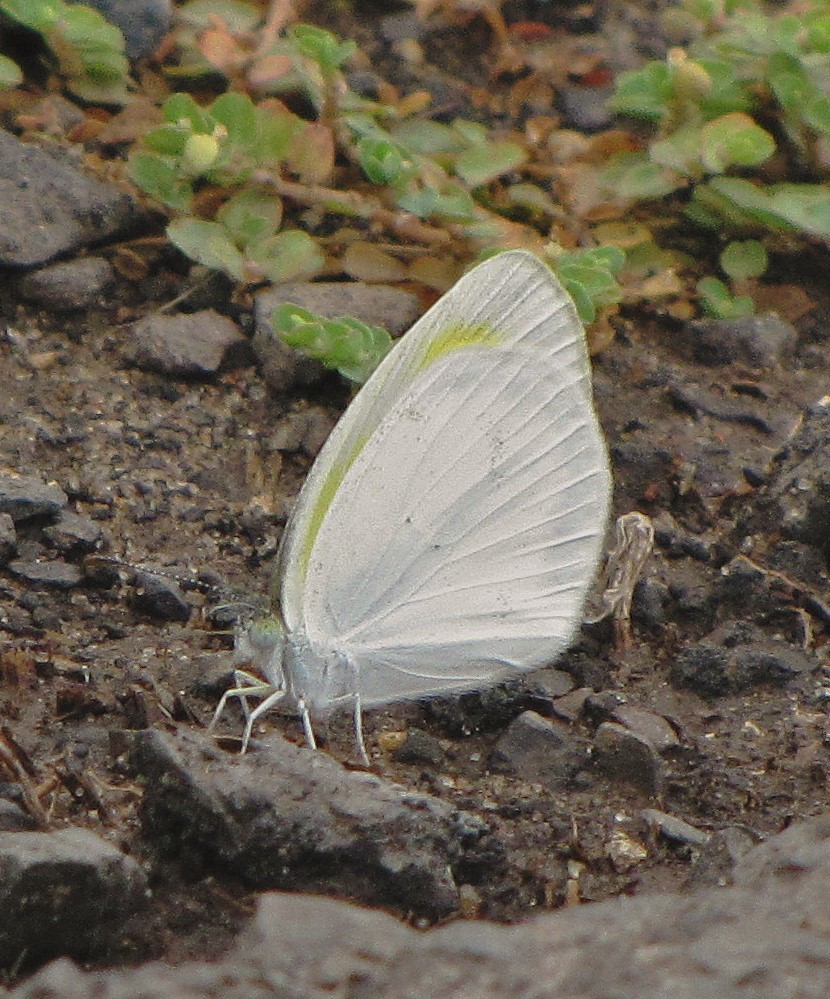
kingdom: Animalia
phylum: Arthropoda
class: Insecta
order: Lepidoptera
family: Pieridae
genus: Eurema
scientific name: Eurema elathea
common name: Banded yellow
